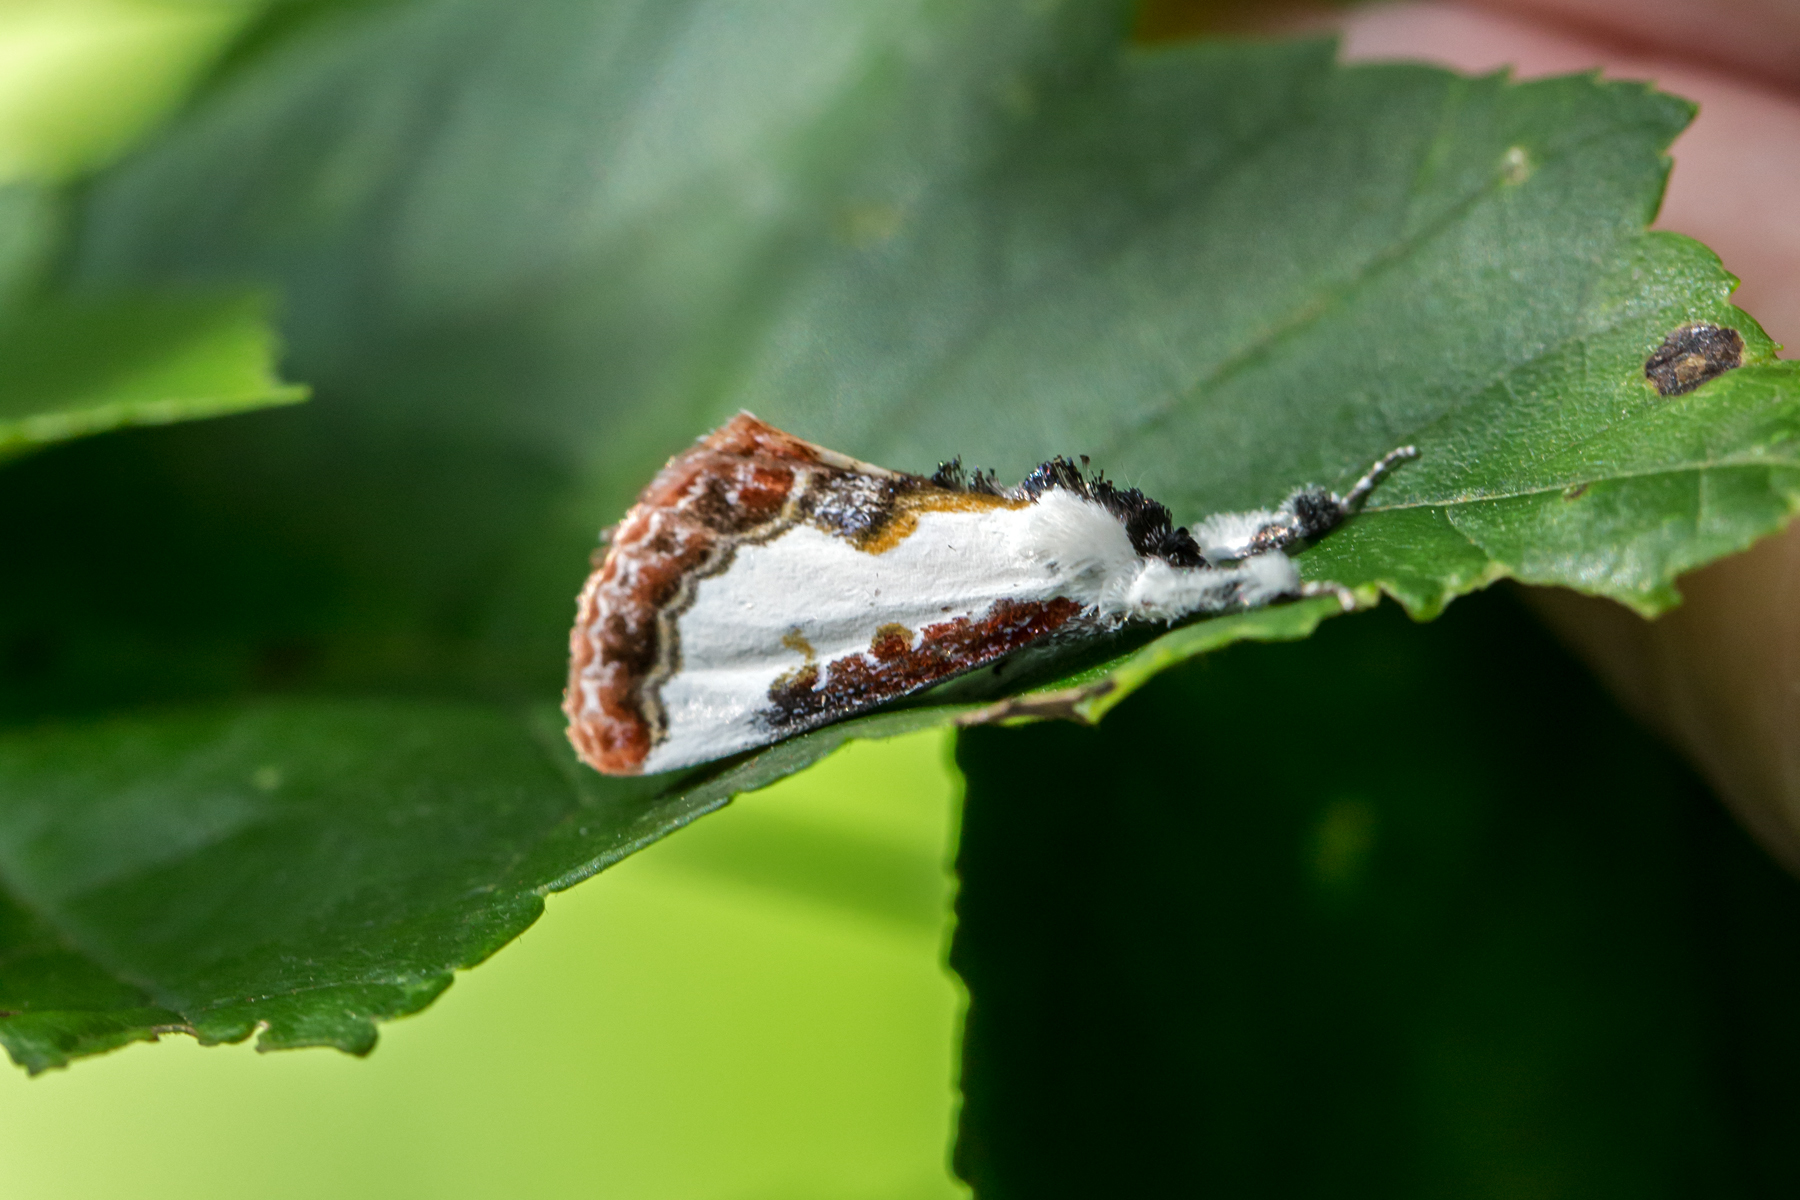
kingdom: Animalia
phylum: Arthropoda
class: Insecta
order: Lepidoptera
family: Noctuidae
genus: Eudryas
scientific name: Eudryas unio
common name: Pearly wood-nymph
